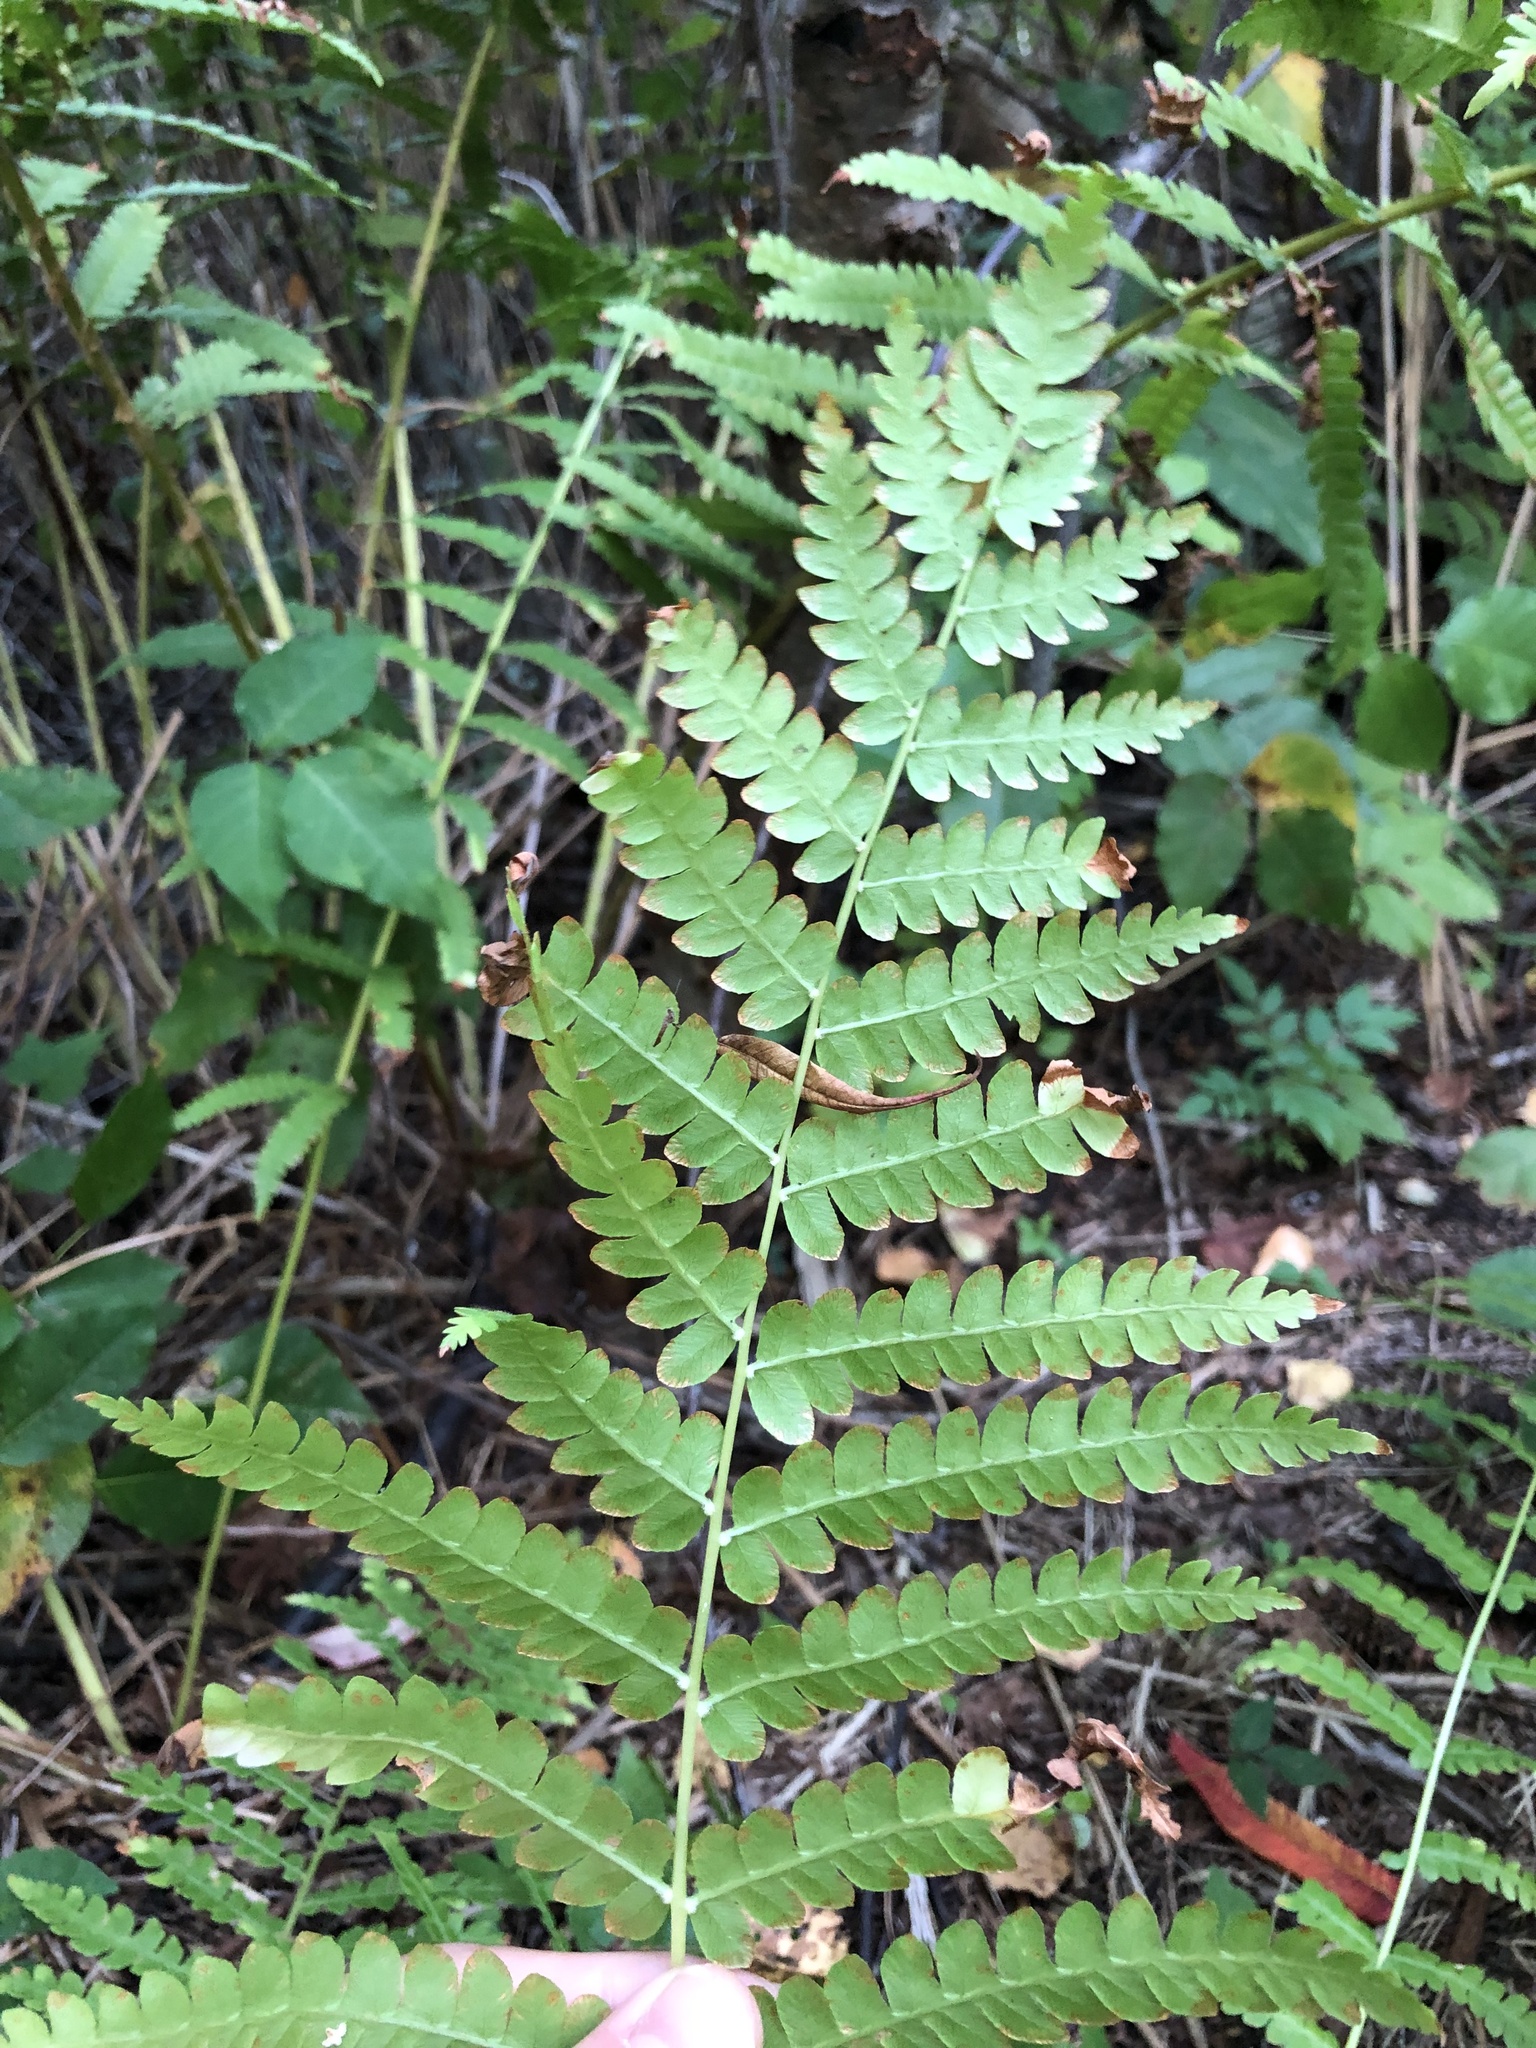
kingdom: Plantae
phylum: Tracheophyta
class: Polypodiopsida
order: Osmundales
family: Osmundaceae
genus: Osmundastrum
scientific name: Osmundastrum cinnamomeum
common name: Cinnamon fern
